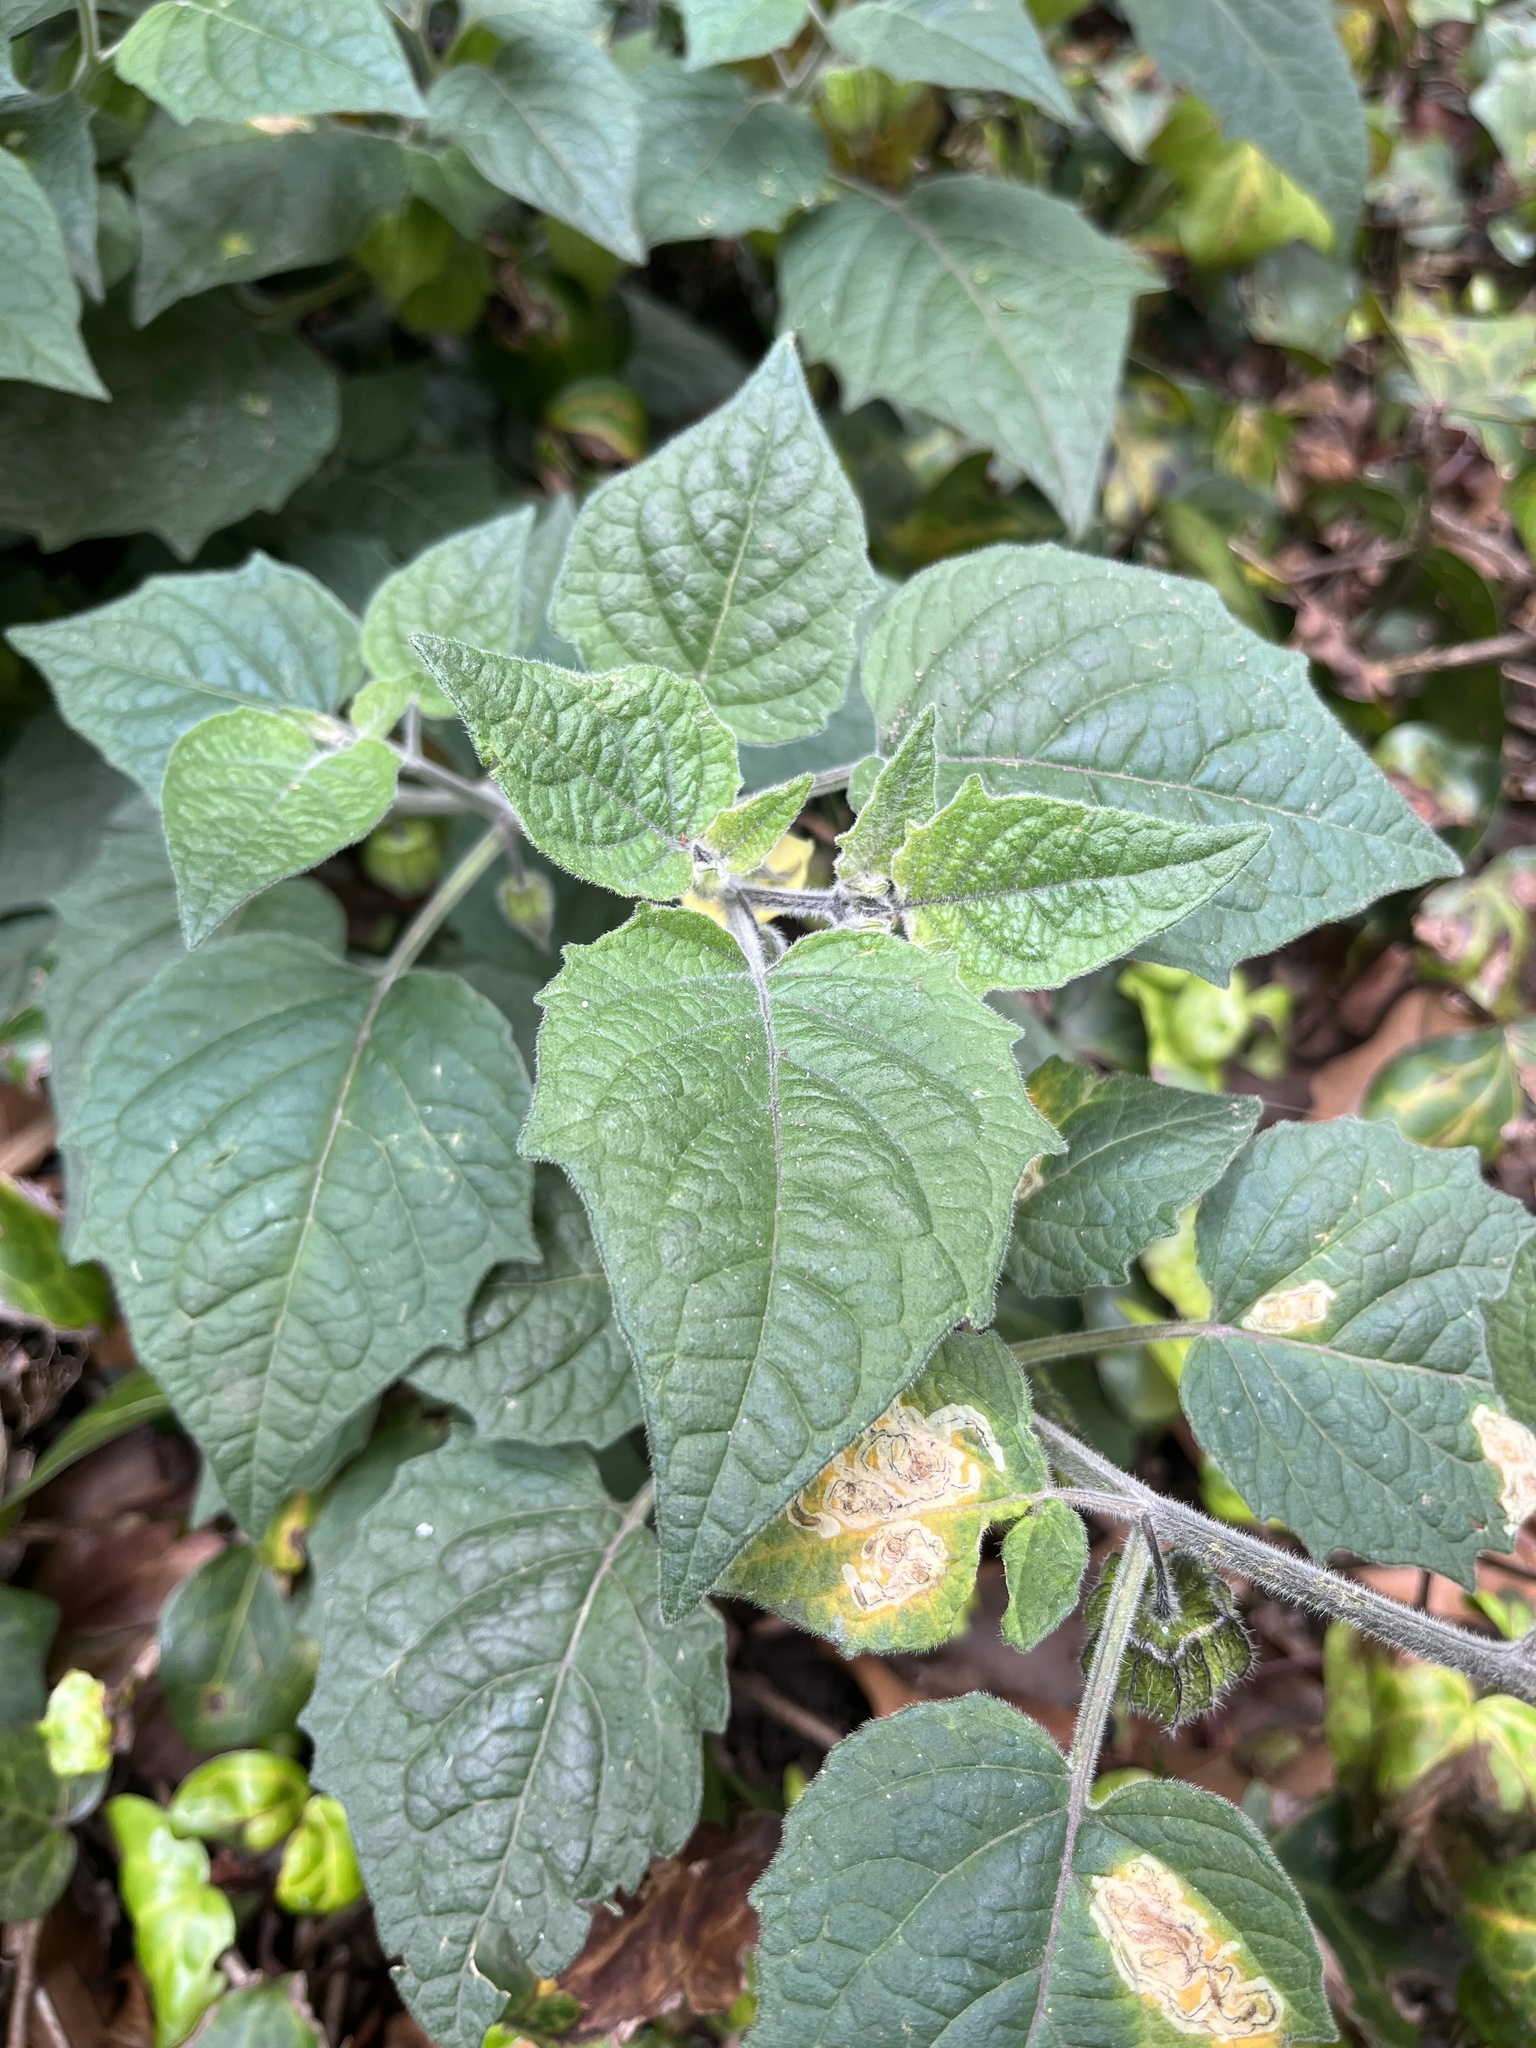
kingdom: Plantae
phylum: Tracheophyta
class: Magnoliopsida
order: Solanales
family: Solanaceae
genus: Physalis
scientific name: Physalis peruviana
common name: Cape-gooseberry
